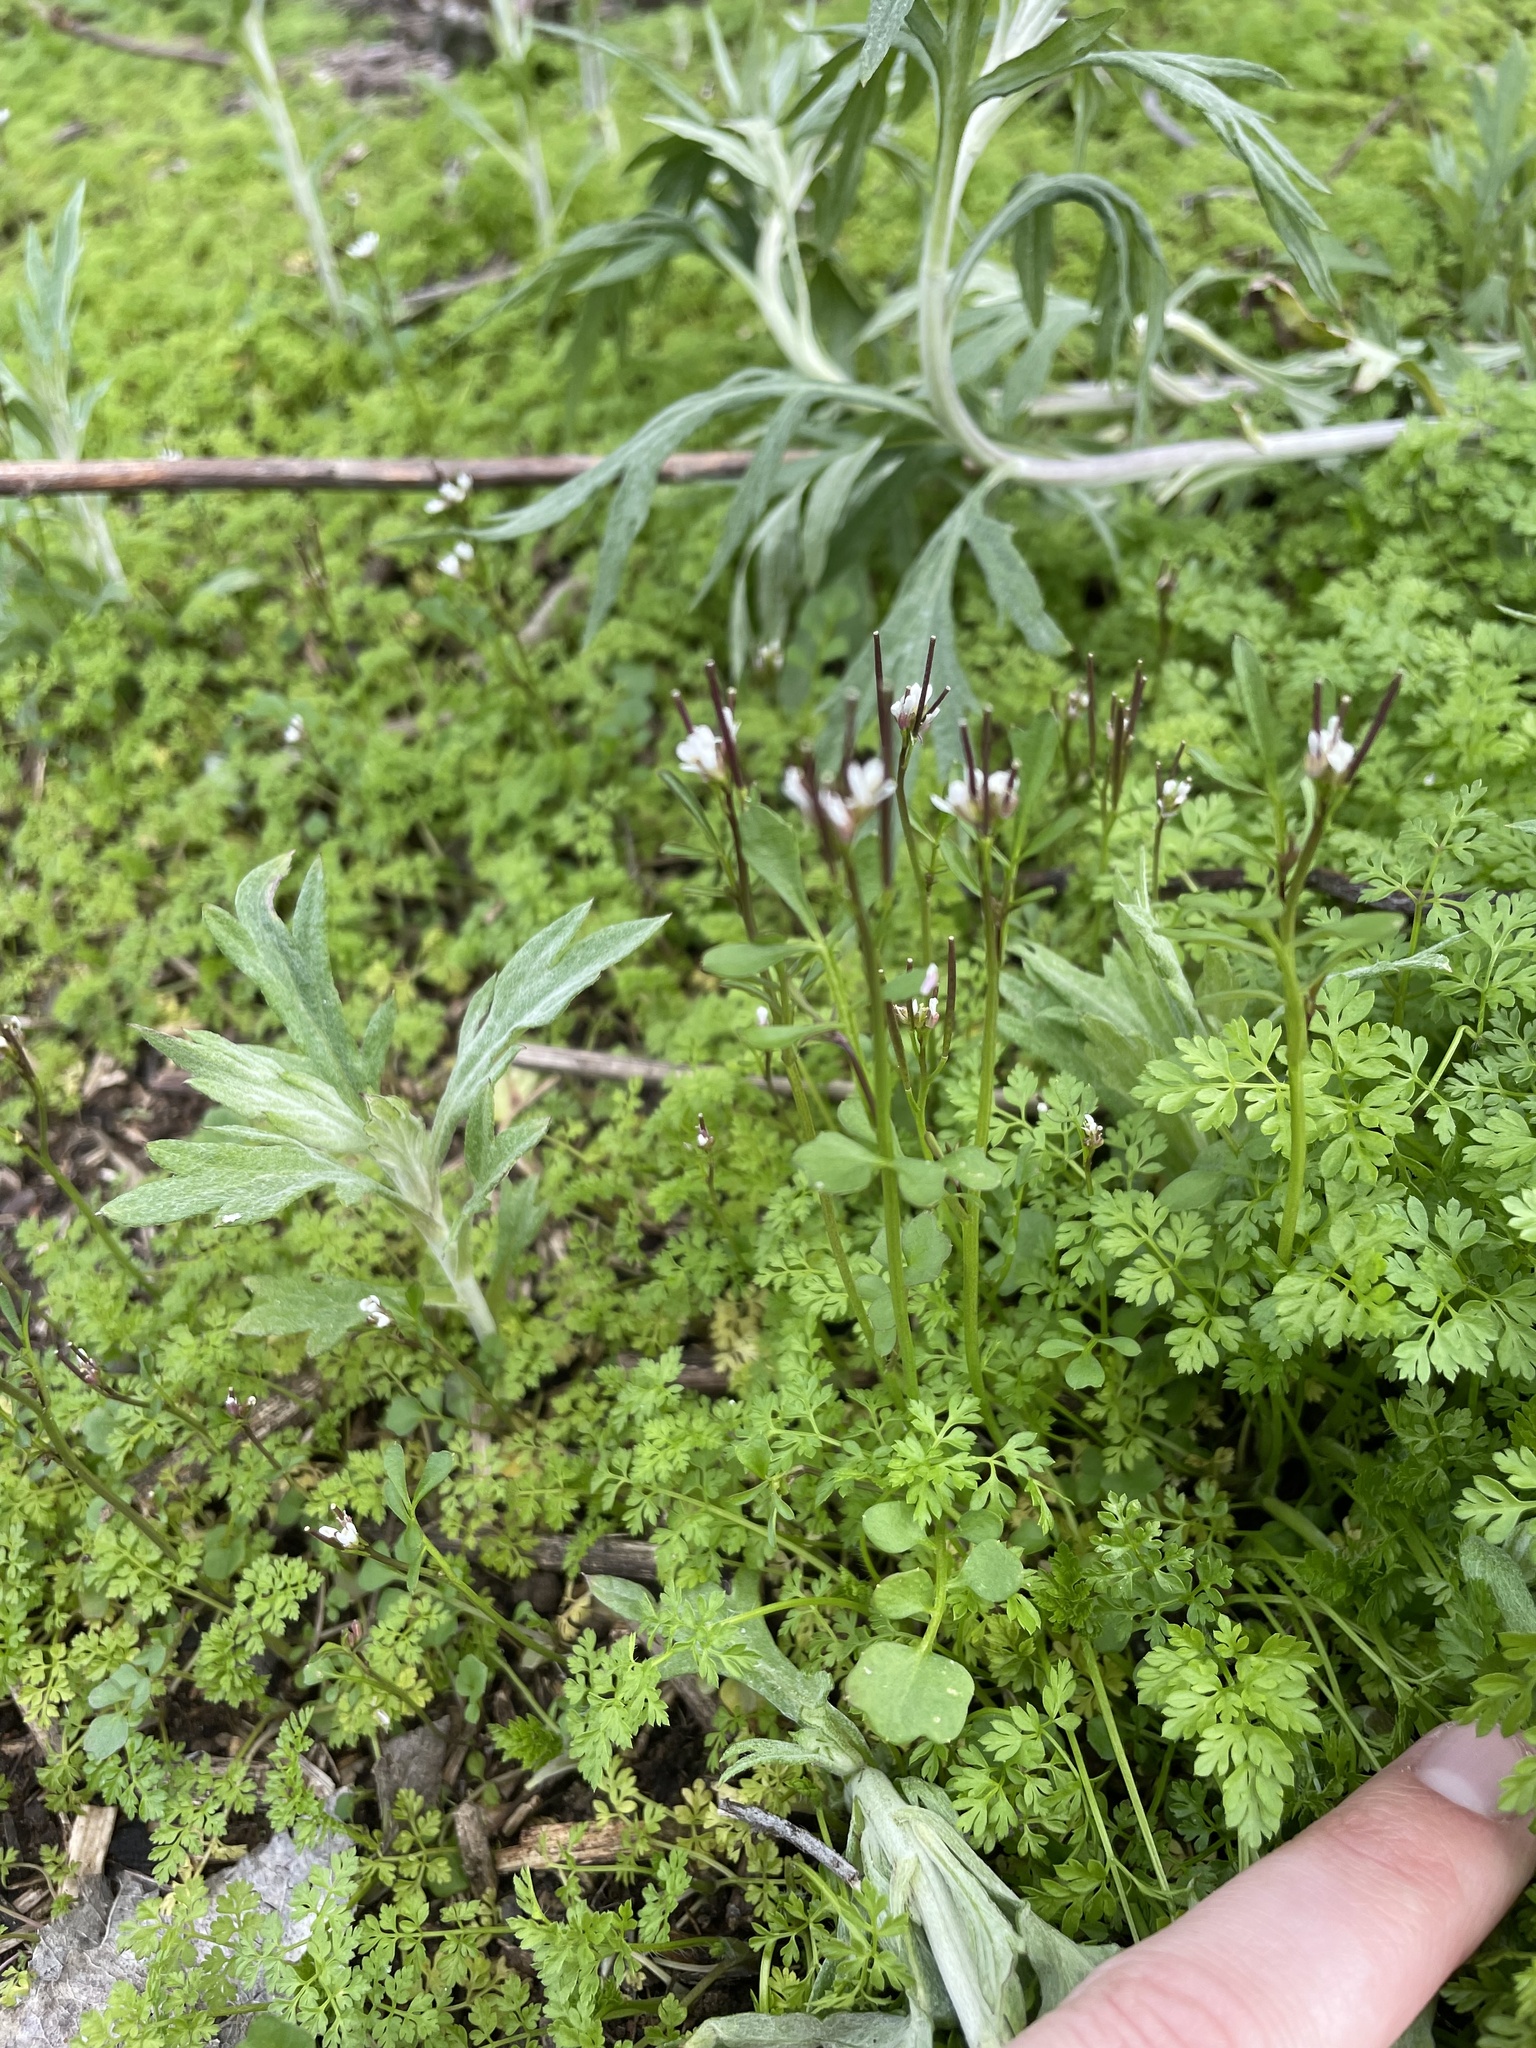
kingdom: Plantae
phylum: Tracheophyta
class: Magnoliopsida
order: Brassicales
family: Brassicaceae
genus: Cardamine
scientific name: Cardamine hirsuta
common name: Hairy bittercress
